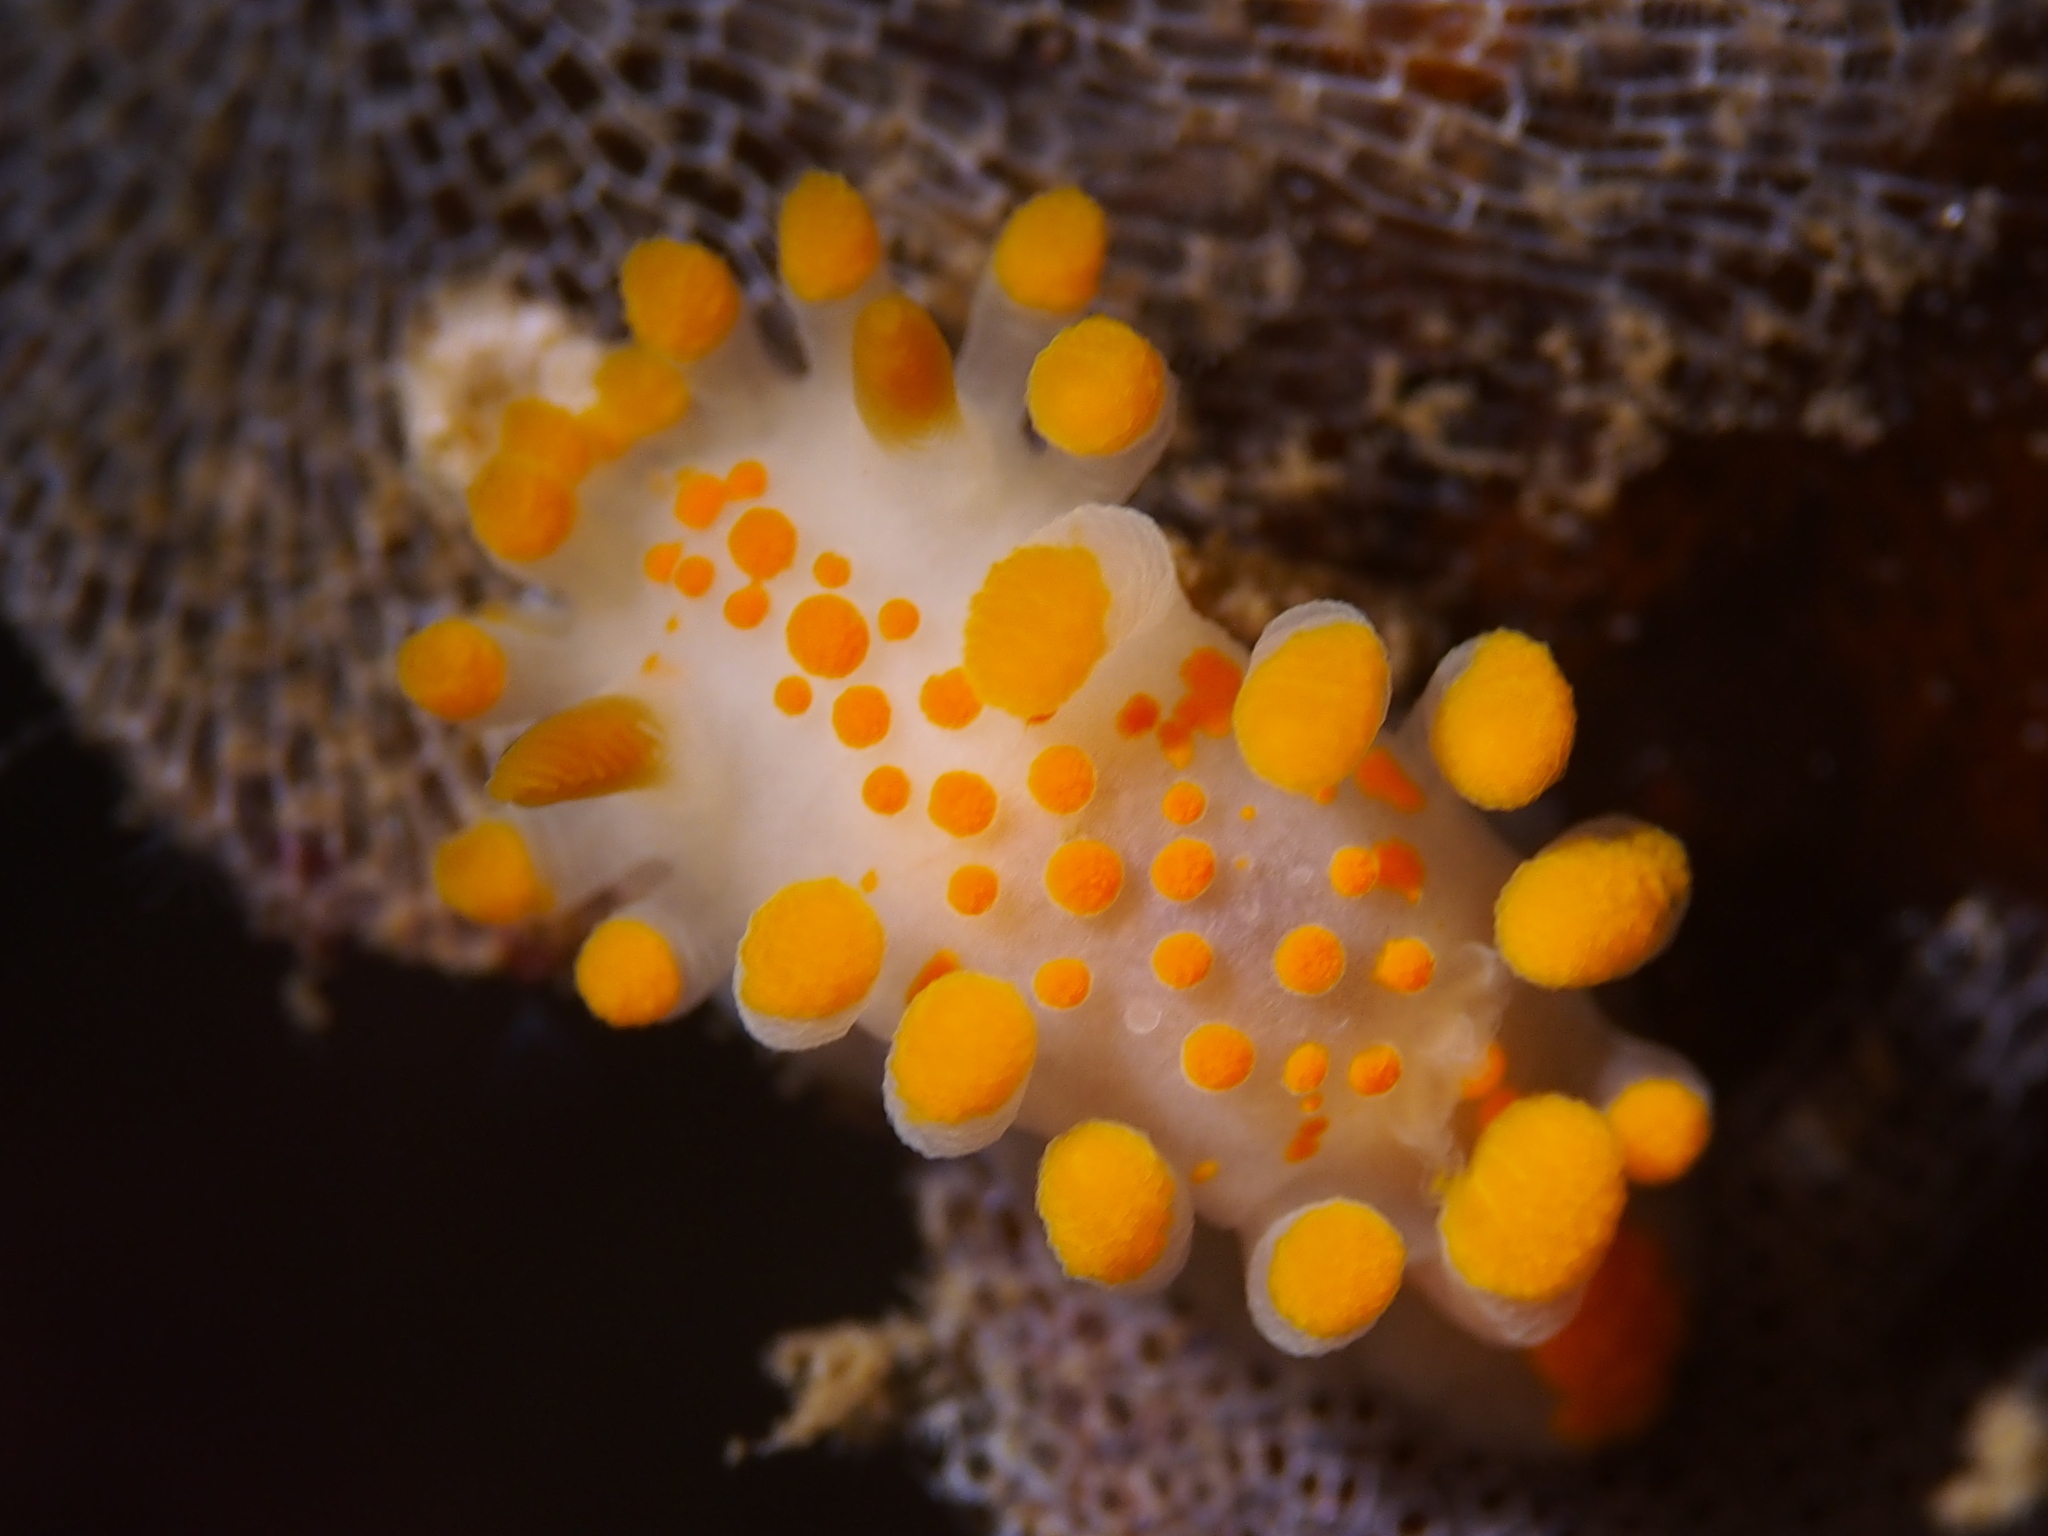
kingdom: Animalia
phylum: Mollusca
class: Gastropoda
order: Nudibranchia
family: Polyceridae
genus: Limacia
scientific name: Limacia clavigera
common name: Orange-clubbed sea slug
